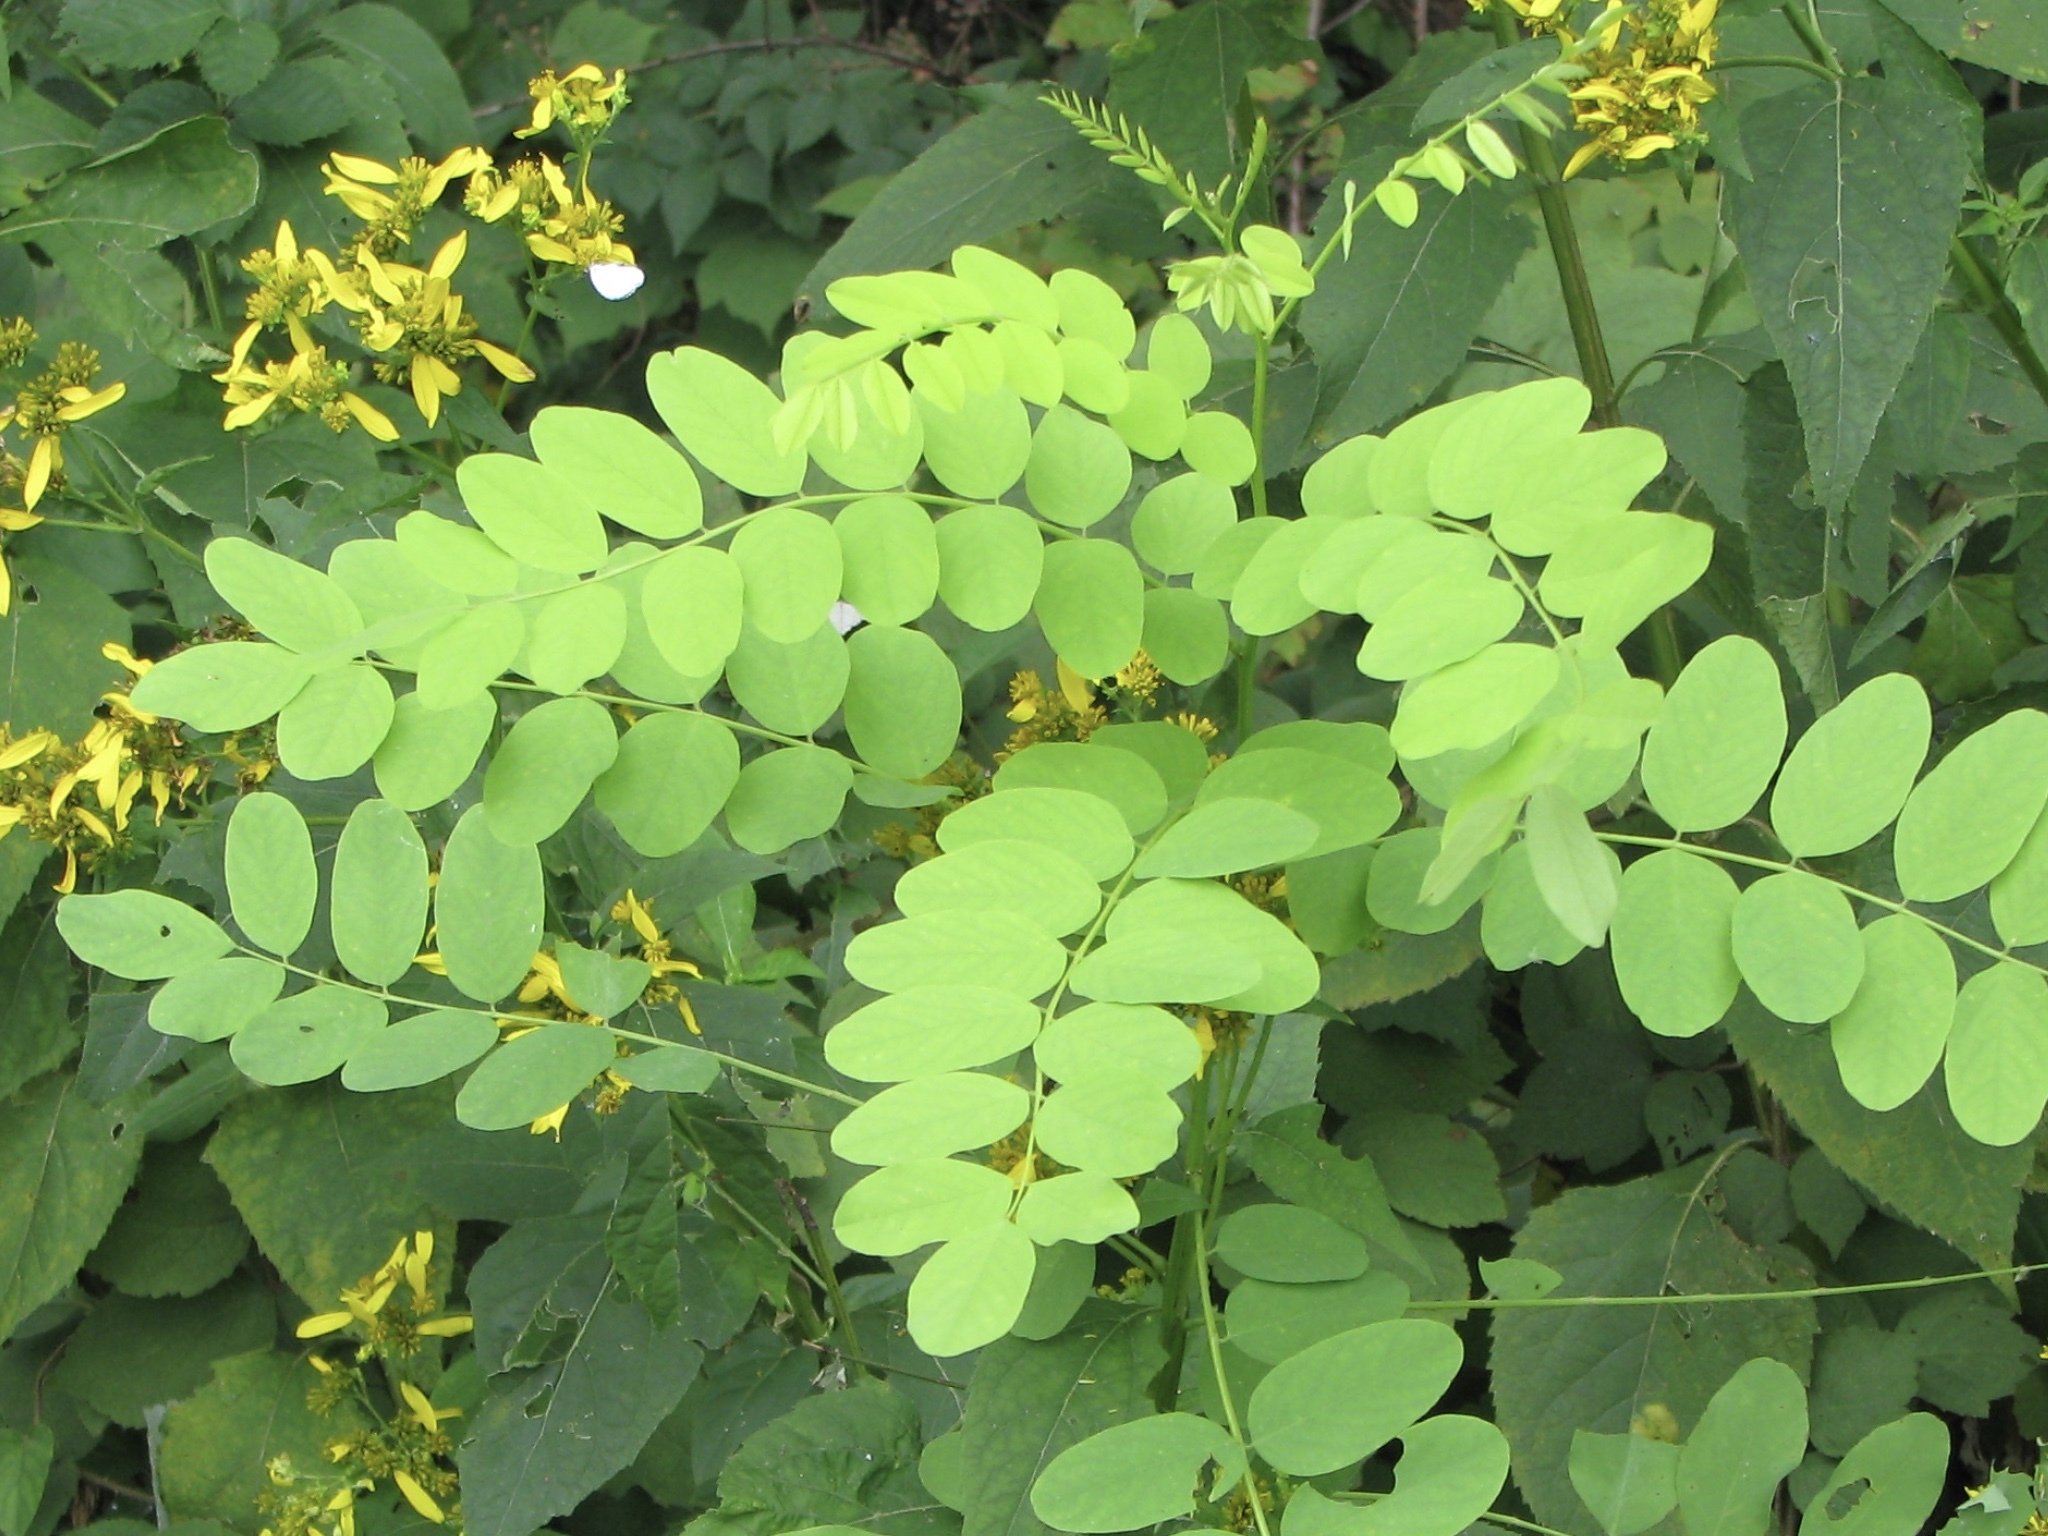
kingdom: Plantae
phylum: Tracheophyta
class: Magnoliopsida
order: Fabales
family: Fabaceae
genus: Robinia
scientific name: Robinia pseudoacacia
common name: Black locust
